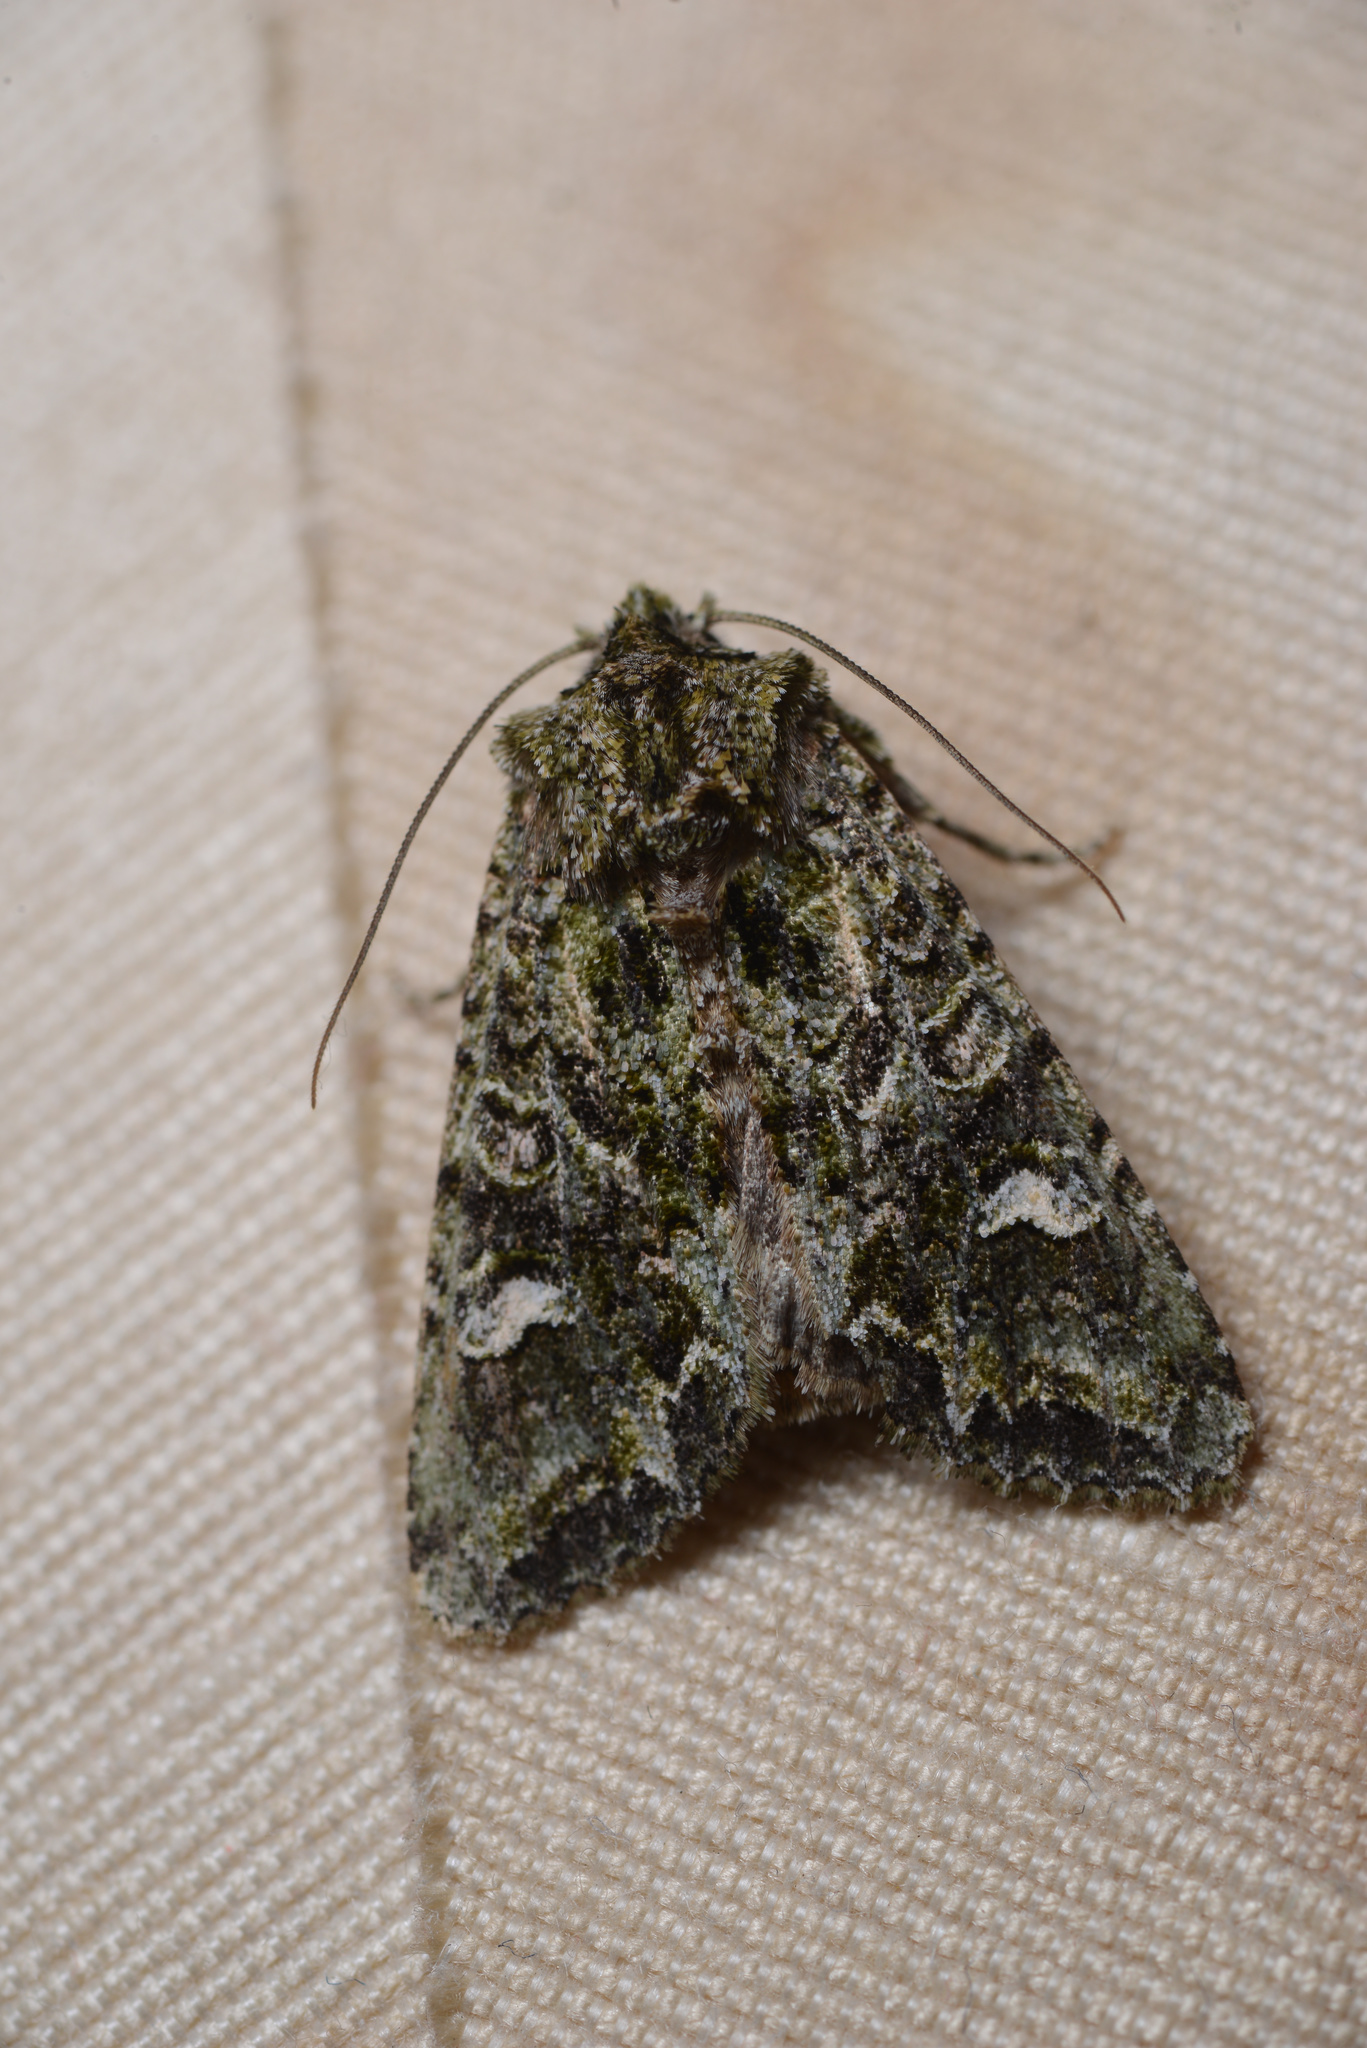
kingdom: Animalia
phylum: Arthropoda
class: Insecta
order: Lepidoptera
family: Noctuidae
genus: Ichneutica
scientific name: Ichneutica
